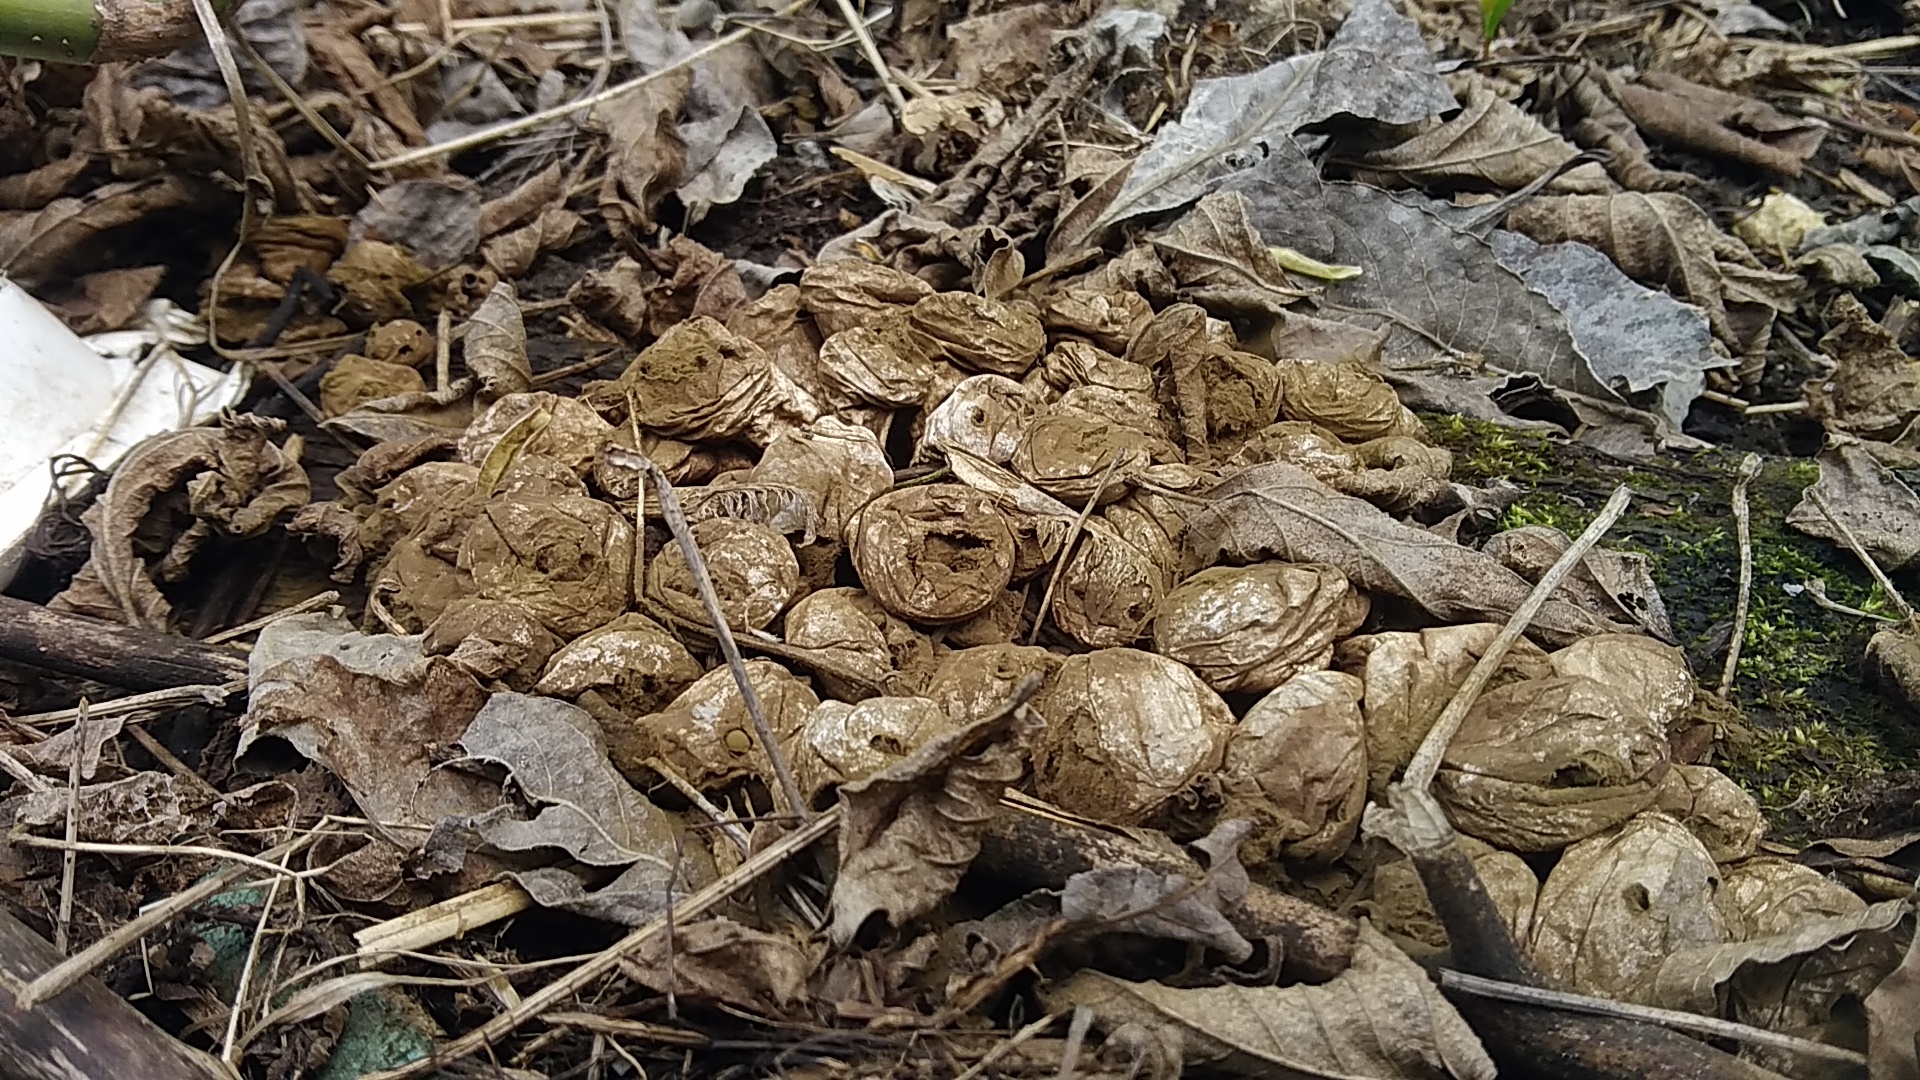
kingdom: Fungi
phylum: Basidiomycota
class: Agaricomycetes
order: Agaricales
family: Lycoperdaceae
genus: Apioperdon
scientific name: Apioperdon pyriforme
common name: Pear-shaped puffball
